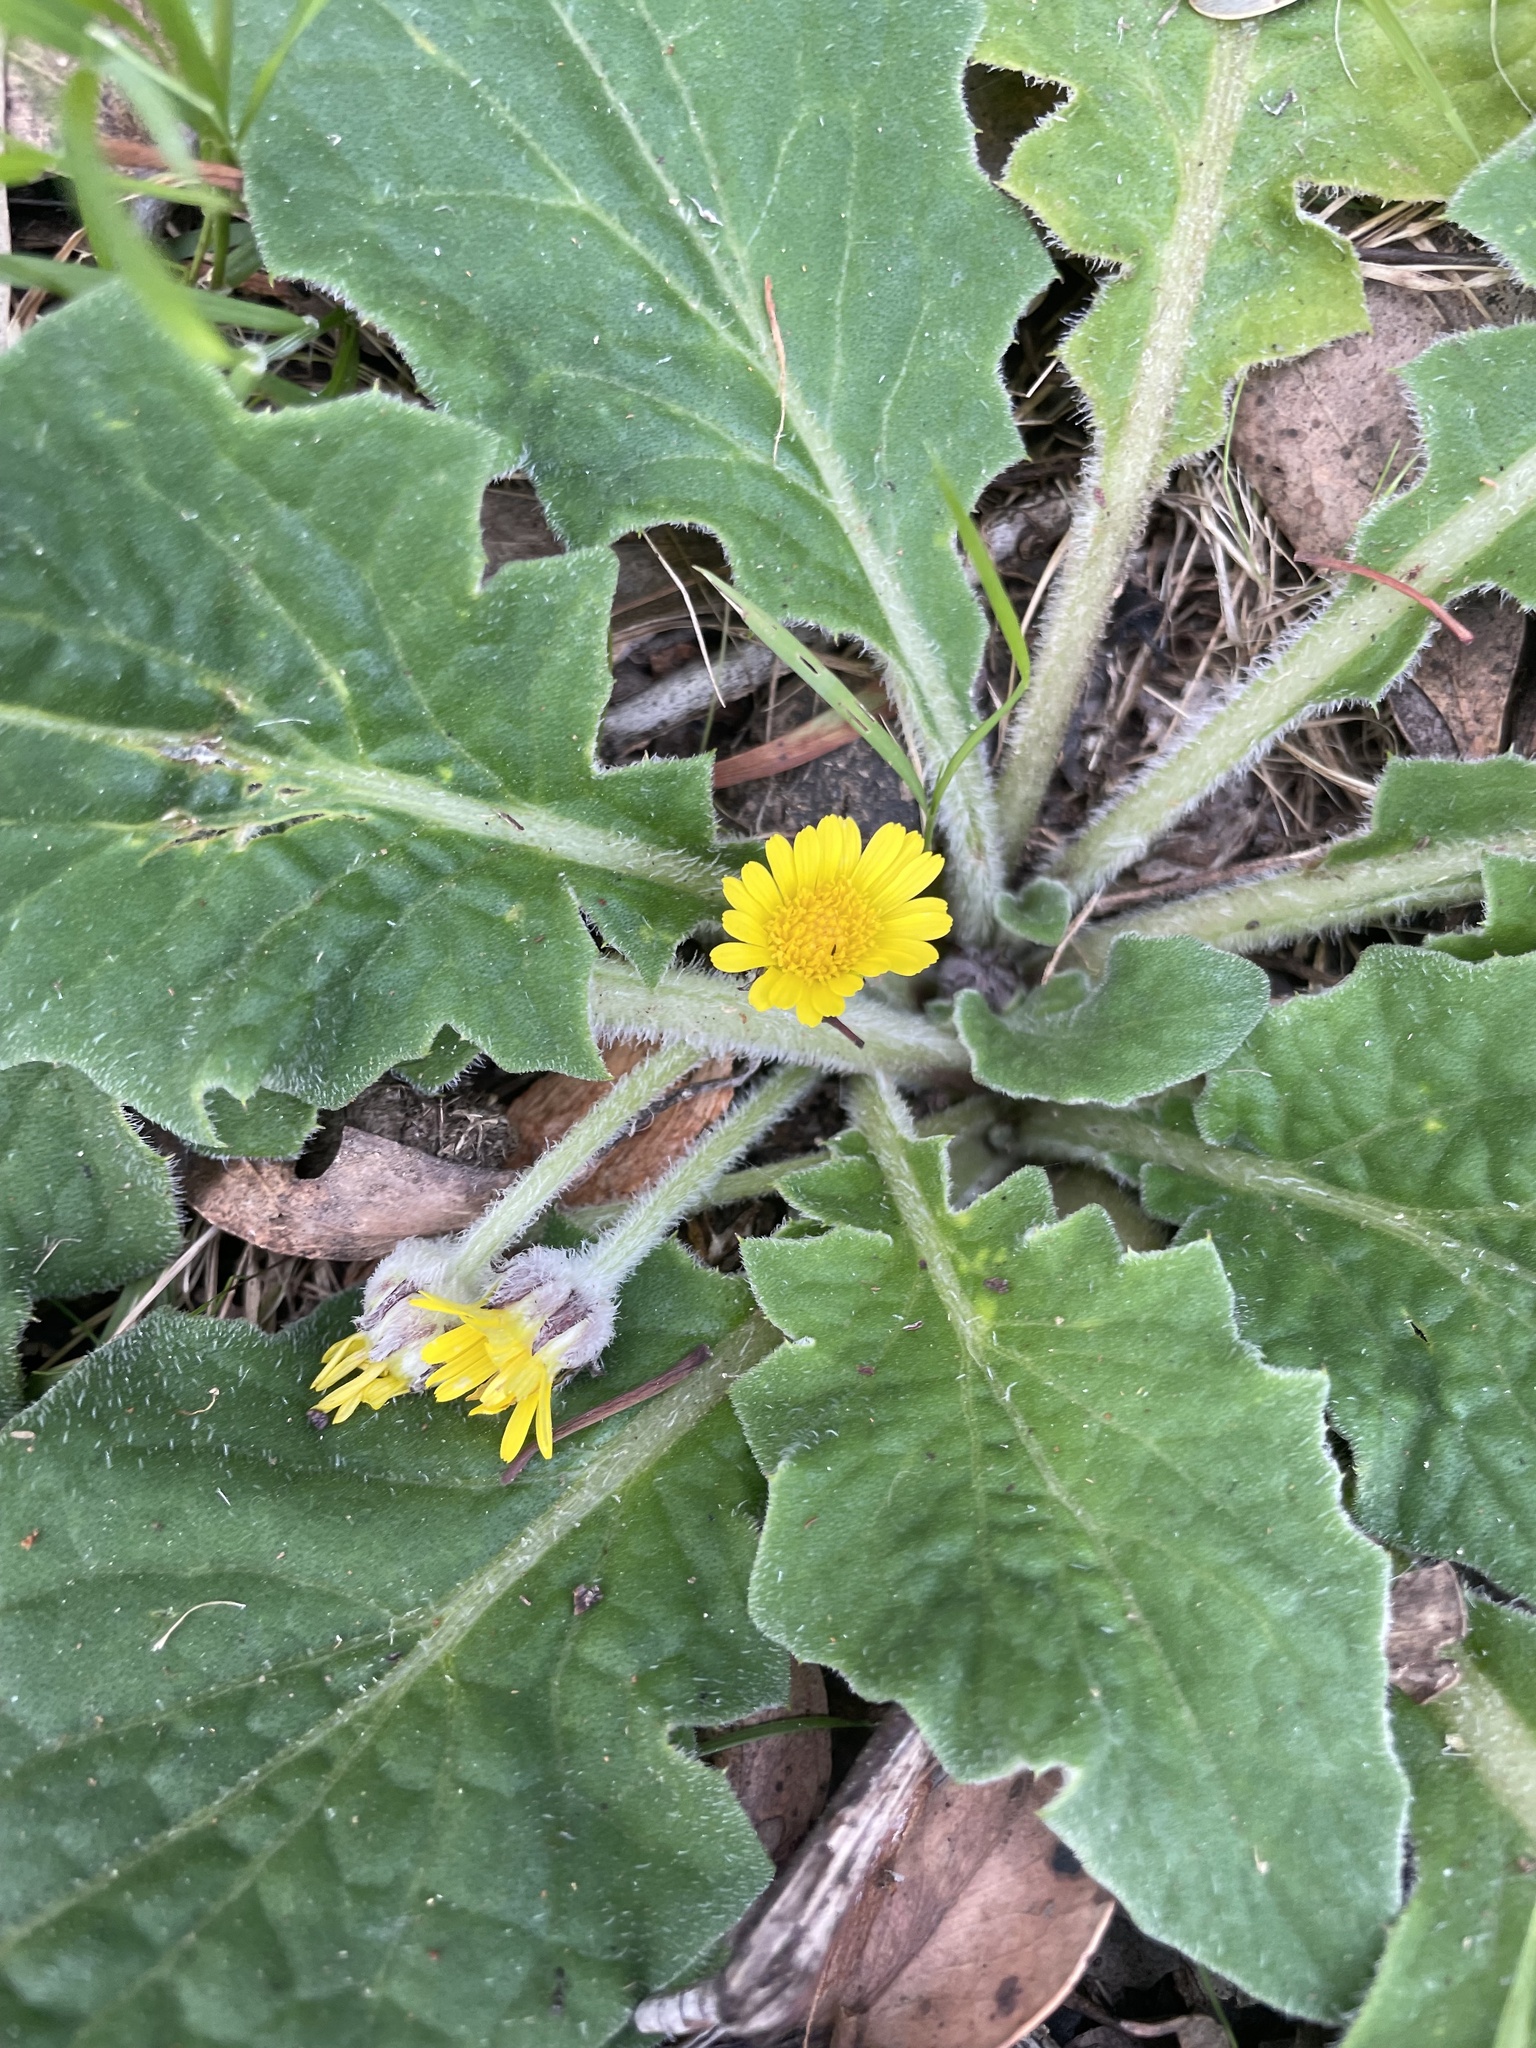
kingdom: Plantae
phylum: Tracheophyta
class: Magnoliopsida
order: Asterales
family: Asteraceae
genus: Cymbonotus
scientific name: Cymbonotus
